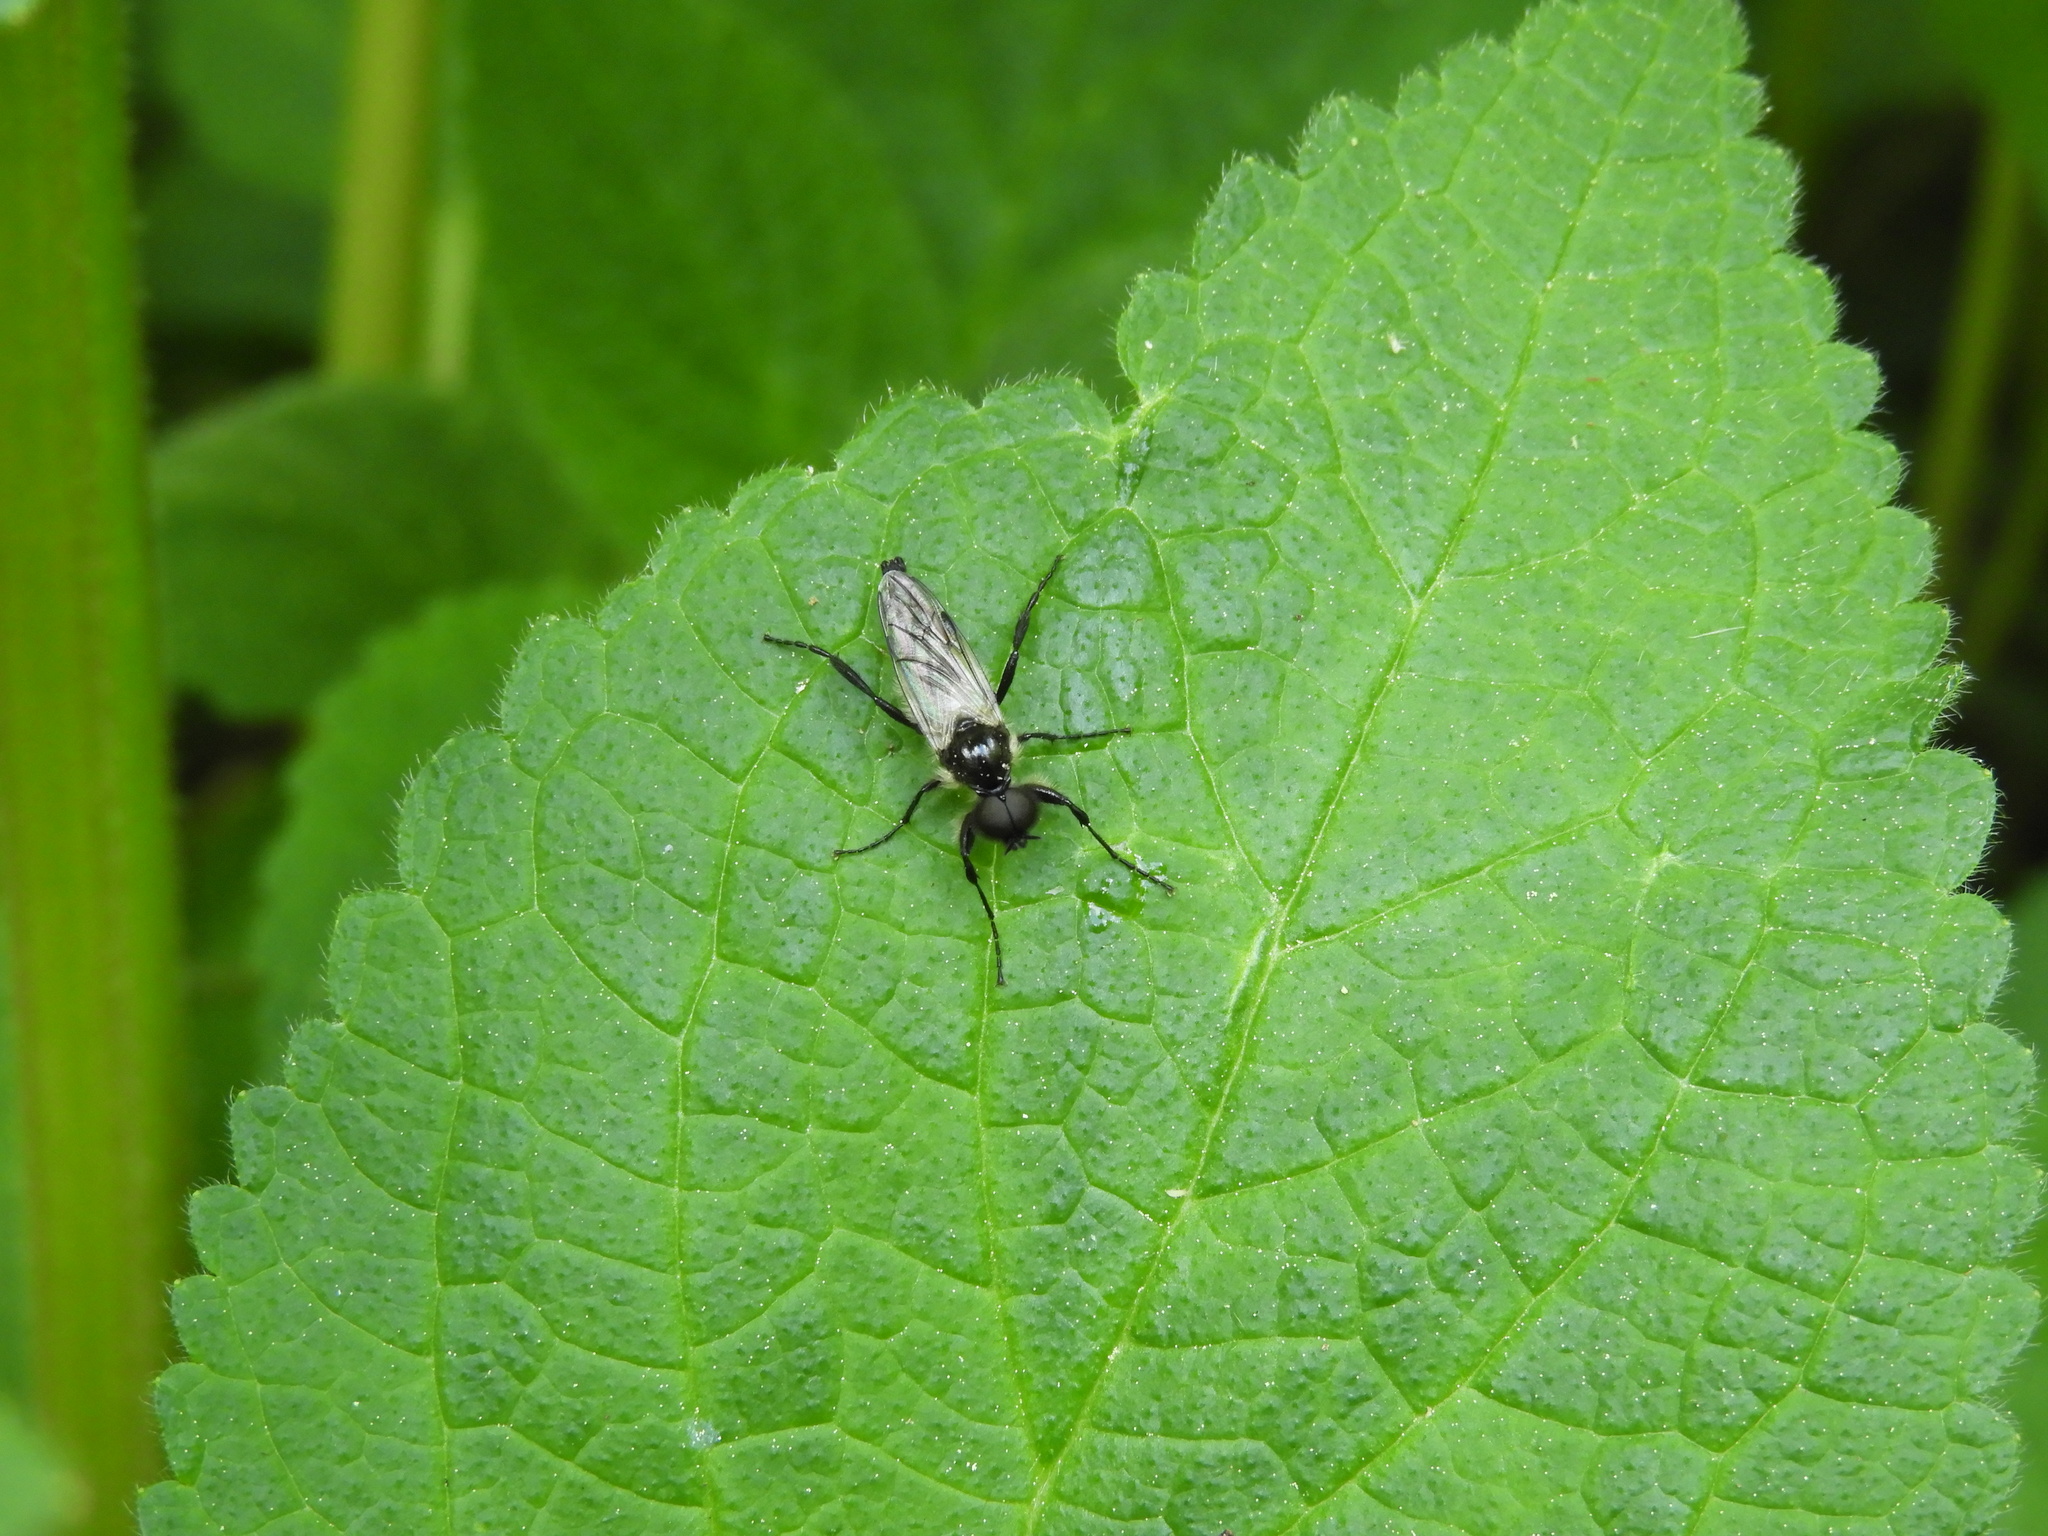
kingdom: Animalia
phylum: Arthropoda
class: Insecta
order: Diptera
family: Bibionidae
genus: Bibio
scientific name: Bibio albipennis
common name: White-winged march fly
